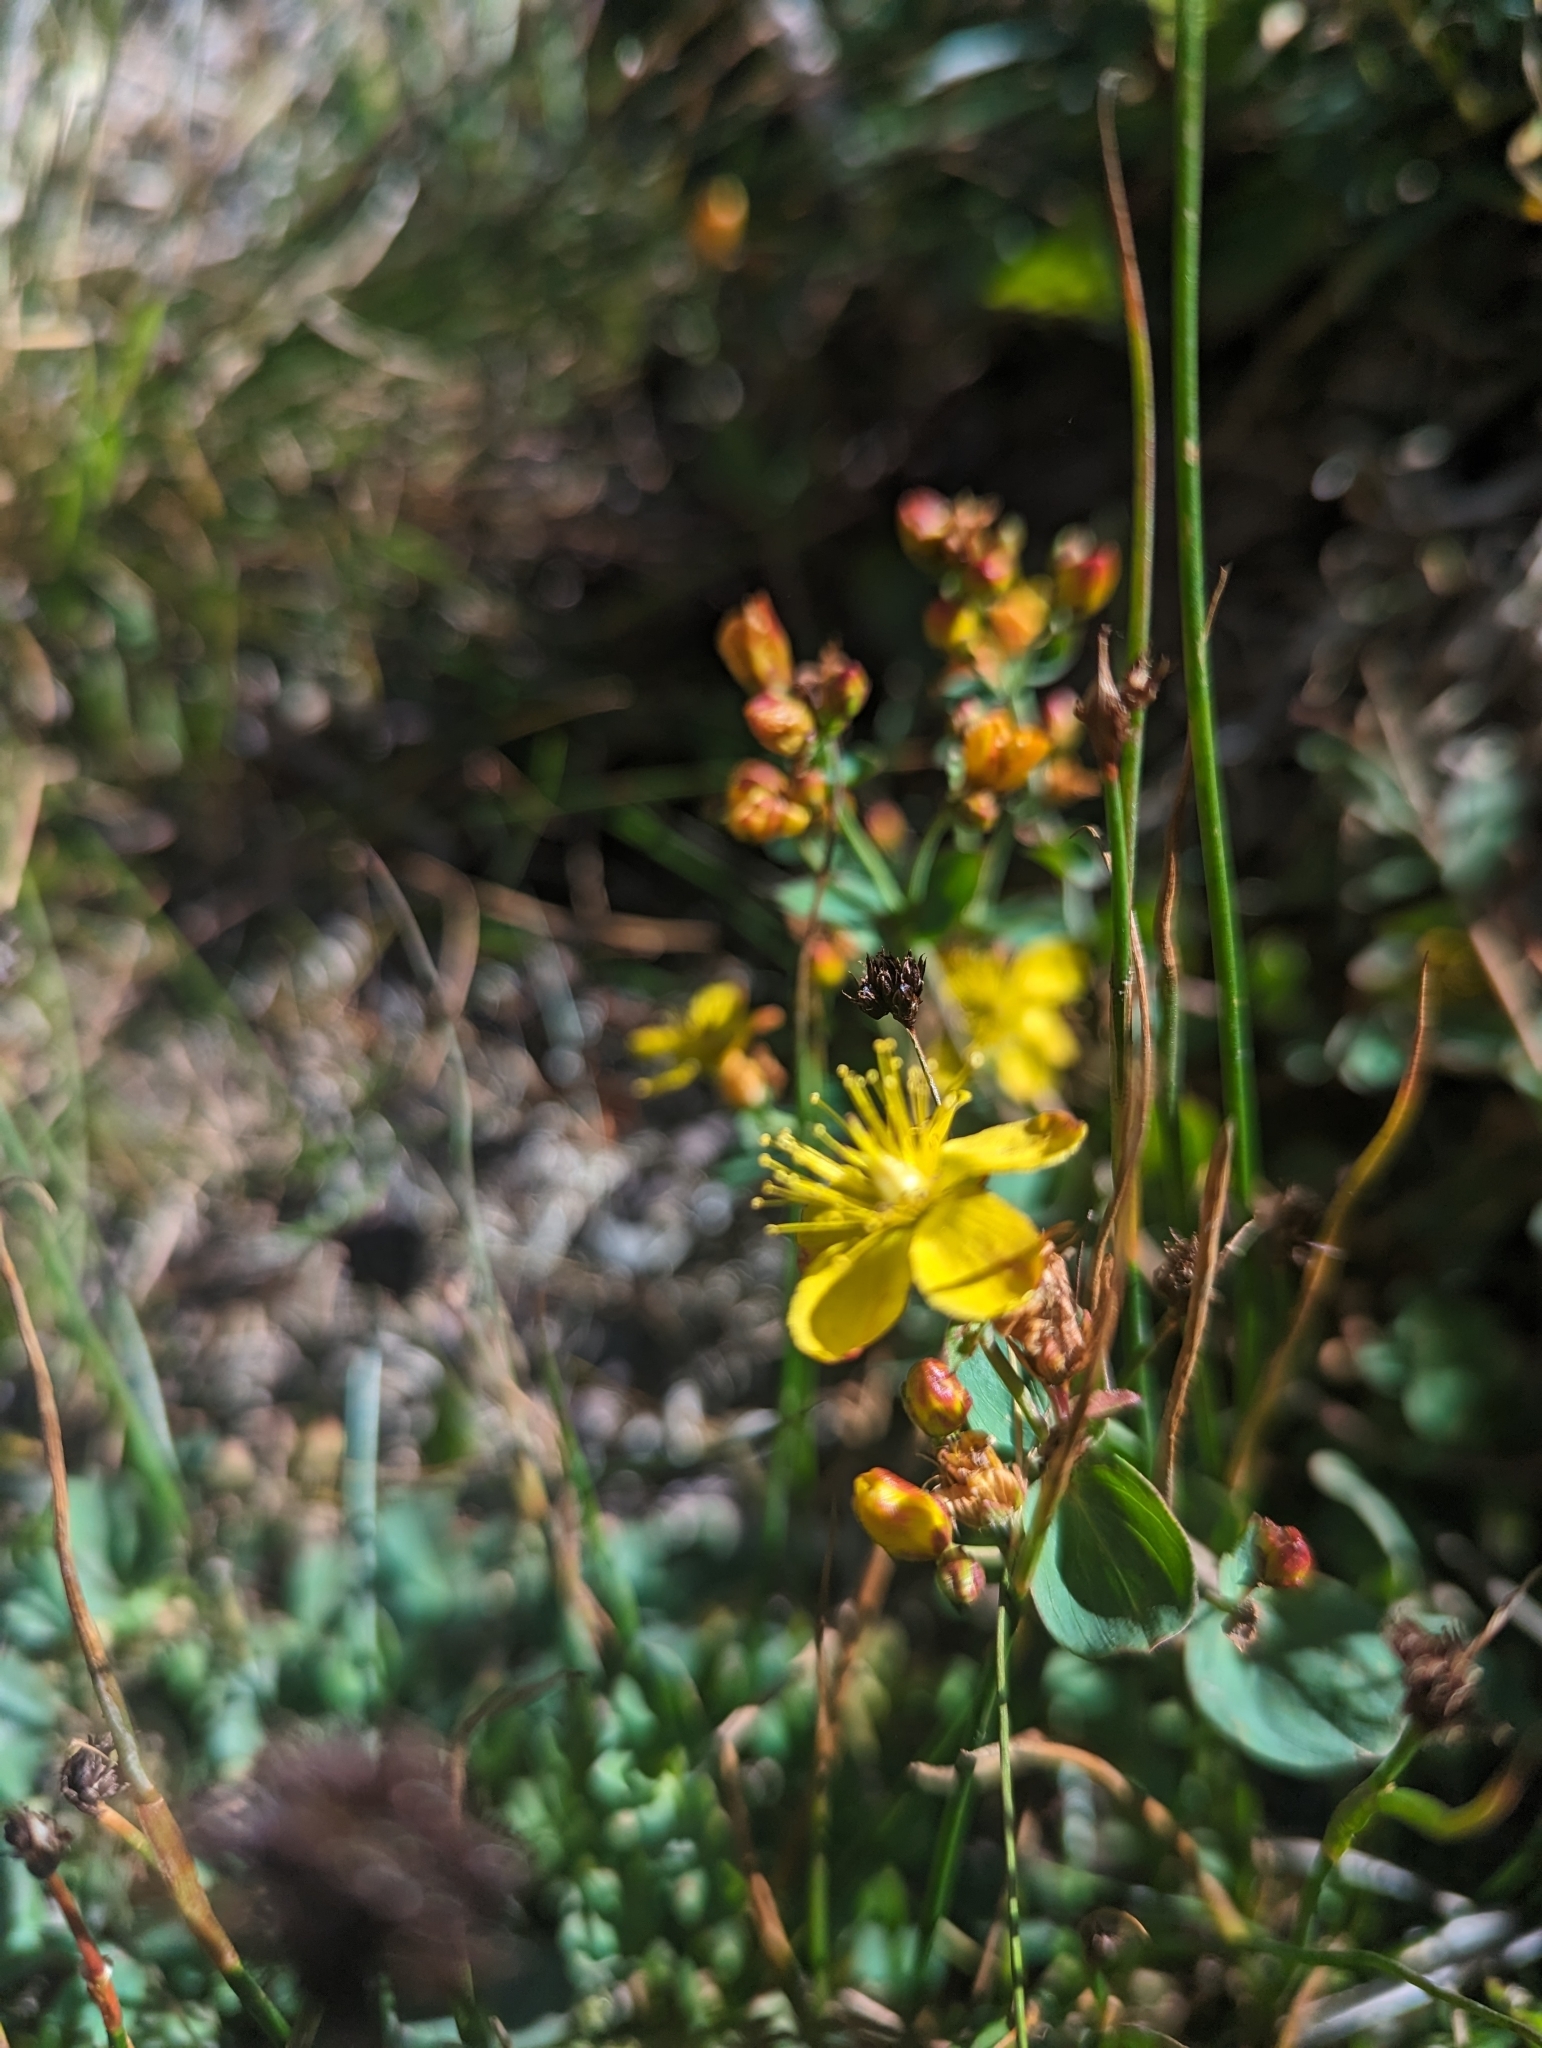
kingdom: Plantae
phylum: Tracheophyta
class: Magnoliopsida
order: Malpighiales
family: Hypericaceae
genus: Hypericum
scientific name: Hypericum scouleri
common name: Scouler's st. john's-wort
